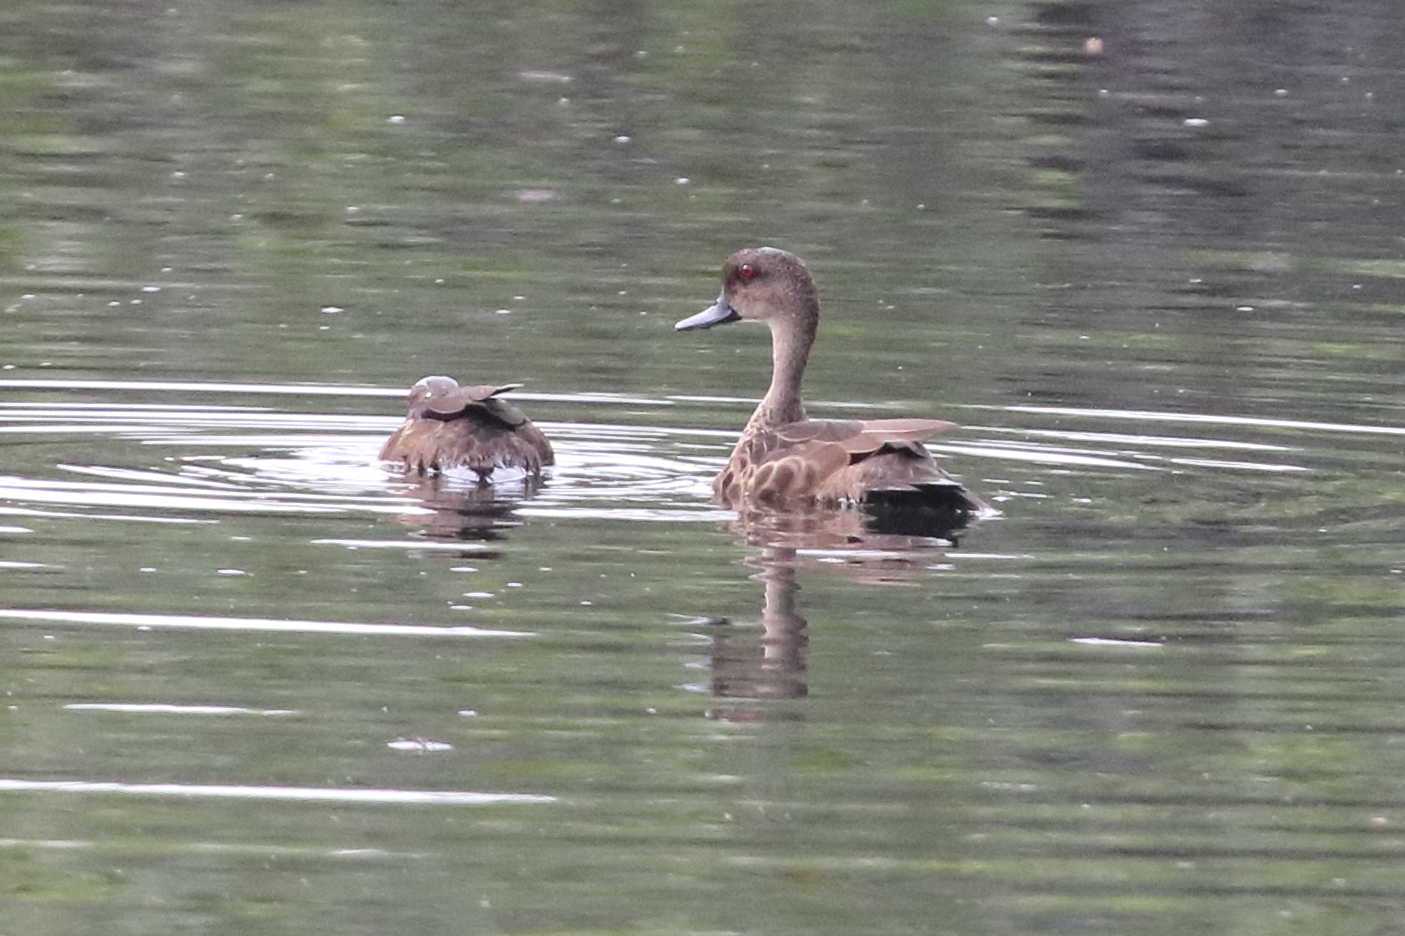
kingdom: Animalia
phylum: Chordata
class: Aves
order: Anseriformes
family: Anatidae
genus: Anas
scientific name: Anas gibberifrons
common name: Sunda teal
